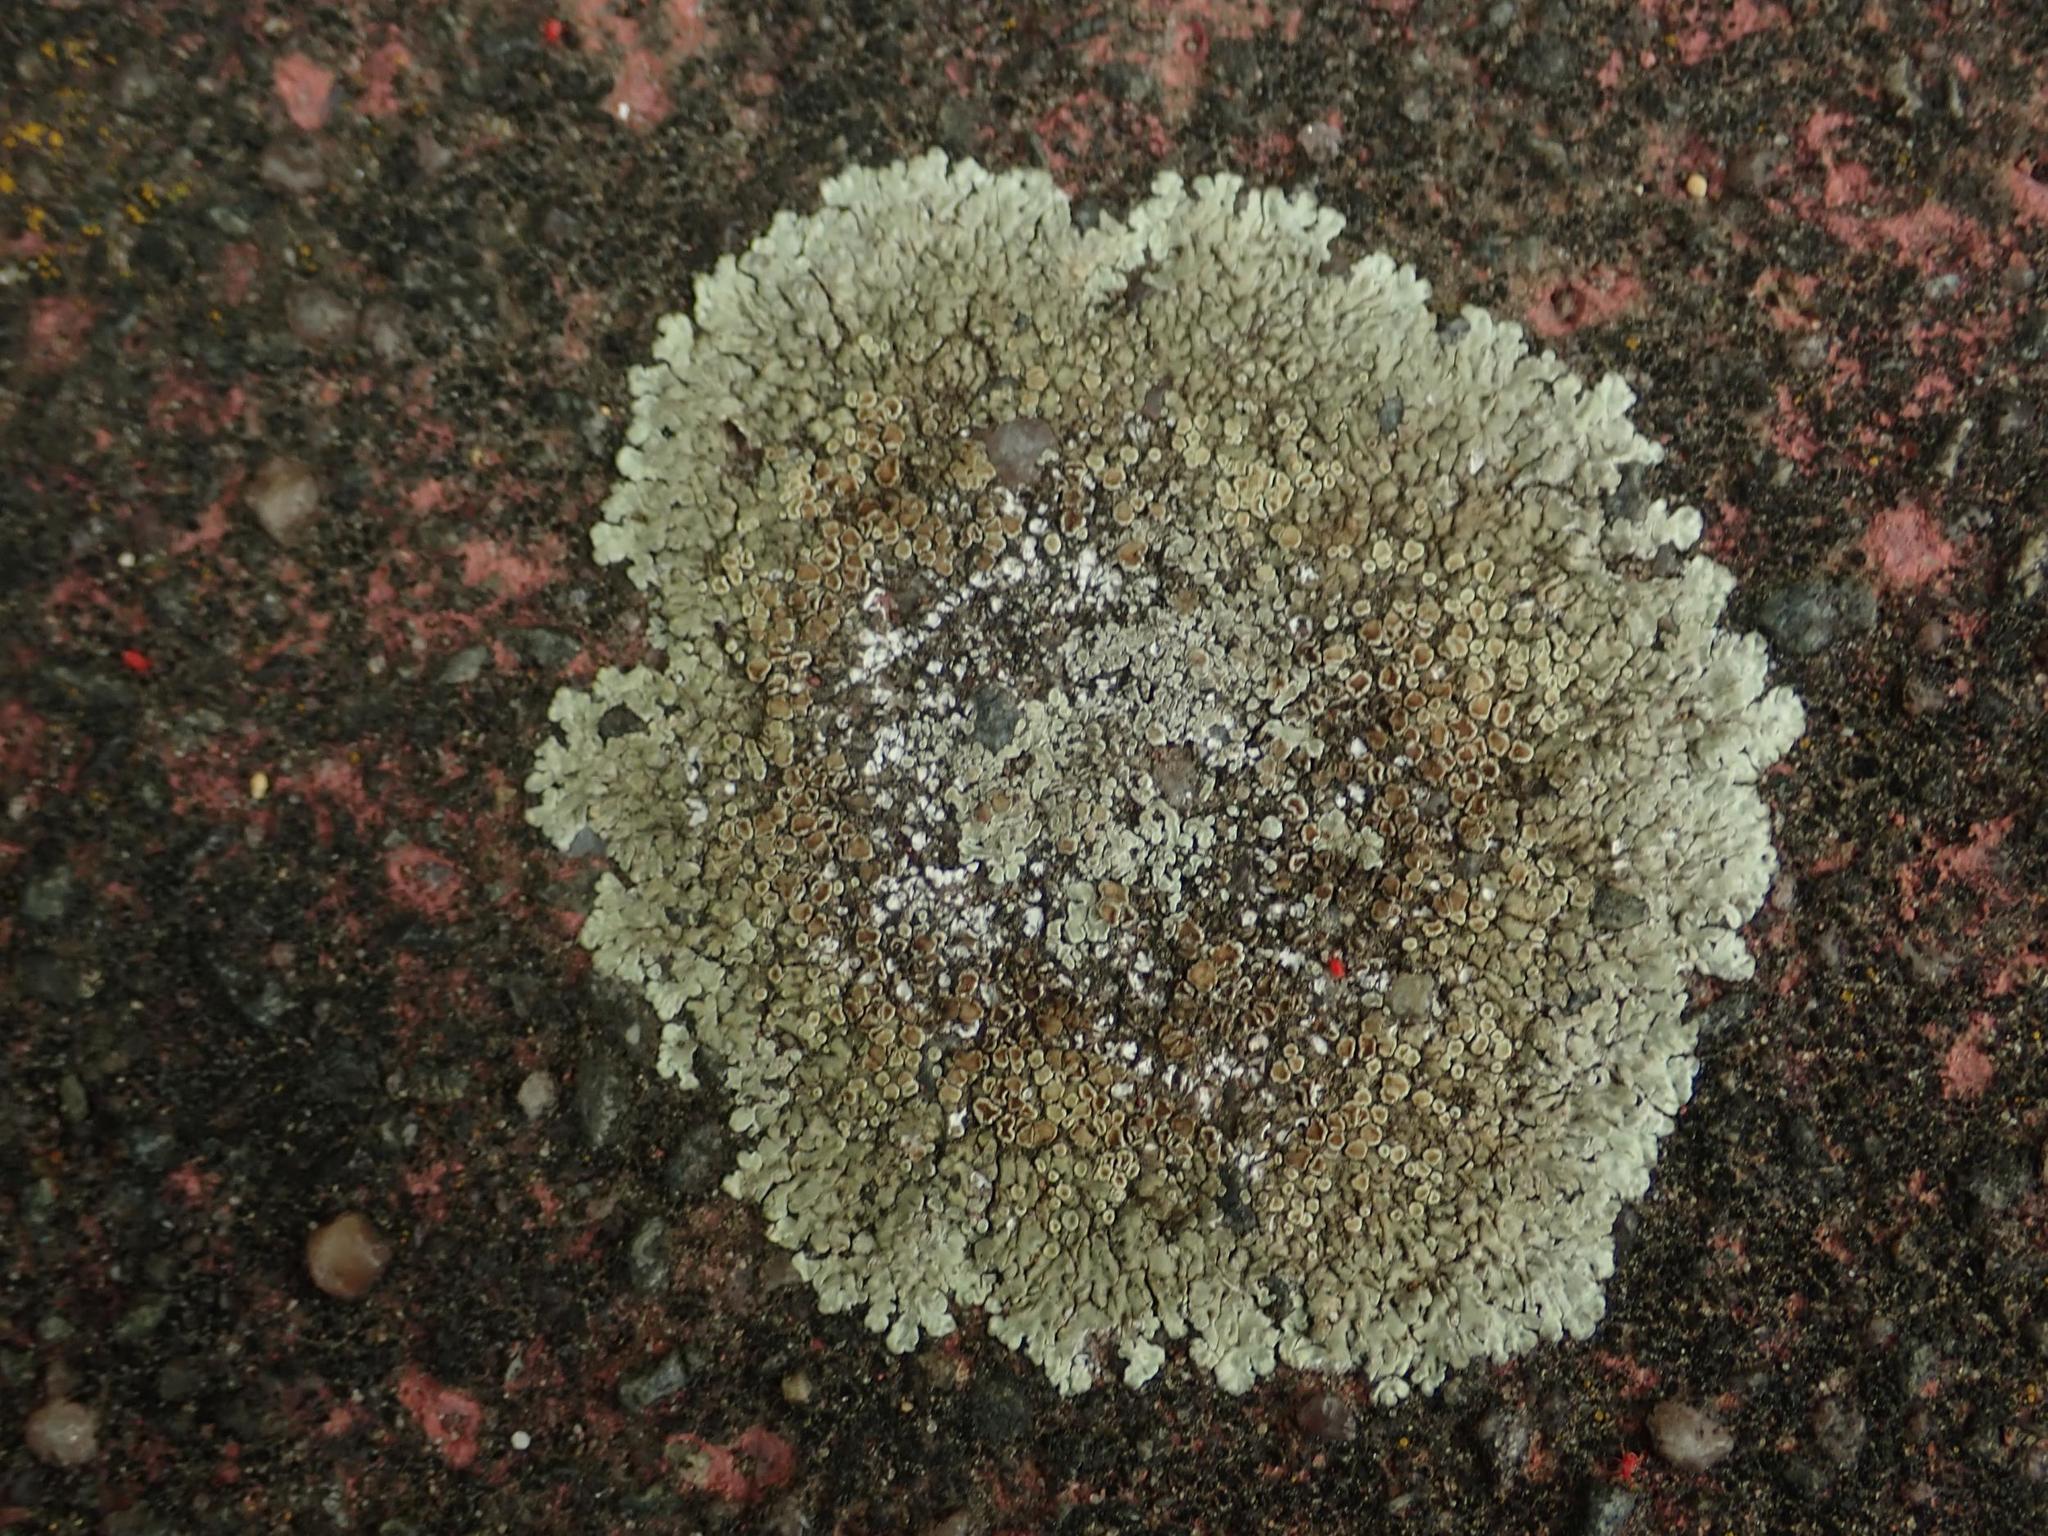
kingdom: Fungi
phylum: Ascomycota
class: Lecanoromycetes
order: Lecanorales
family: Lecanoraceae
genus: Protoparmeliopsis
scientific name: Protoparmeliopsis muralis
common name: Stonewall rim lichen
